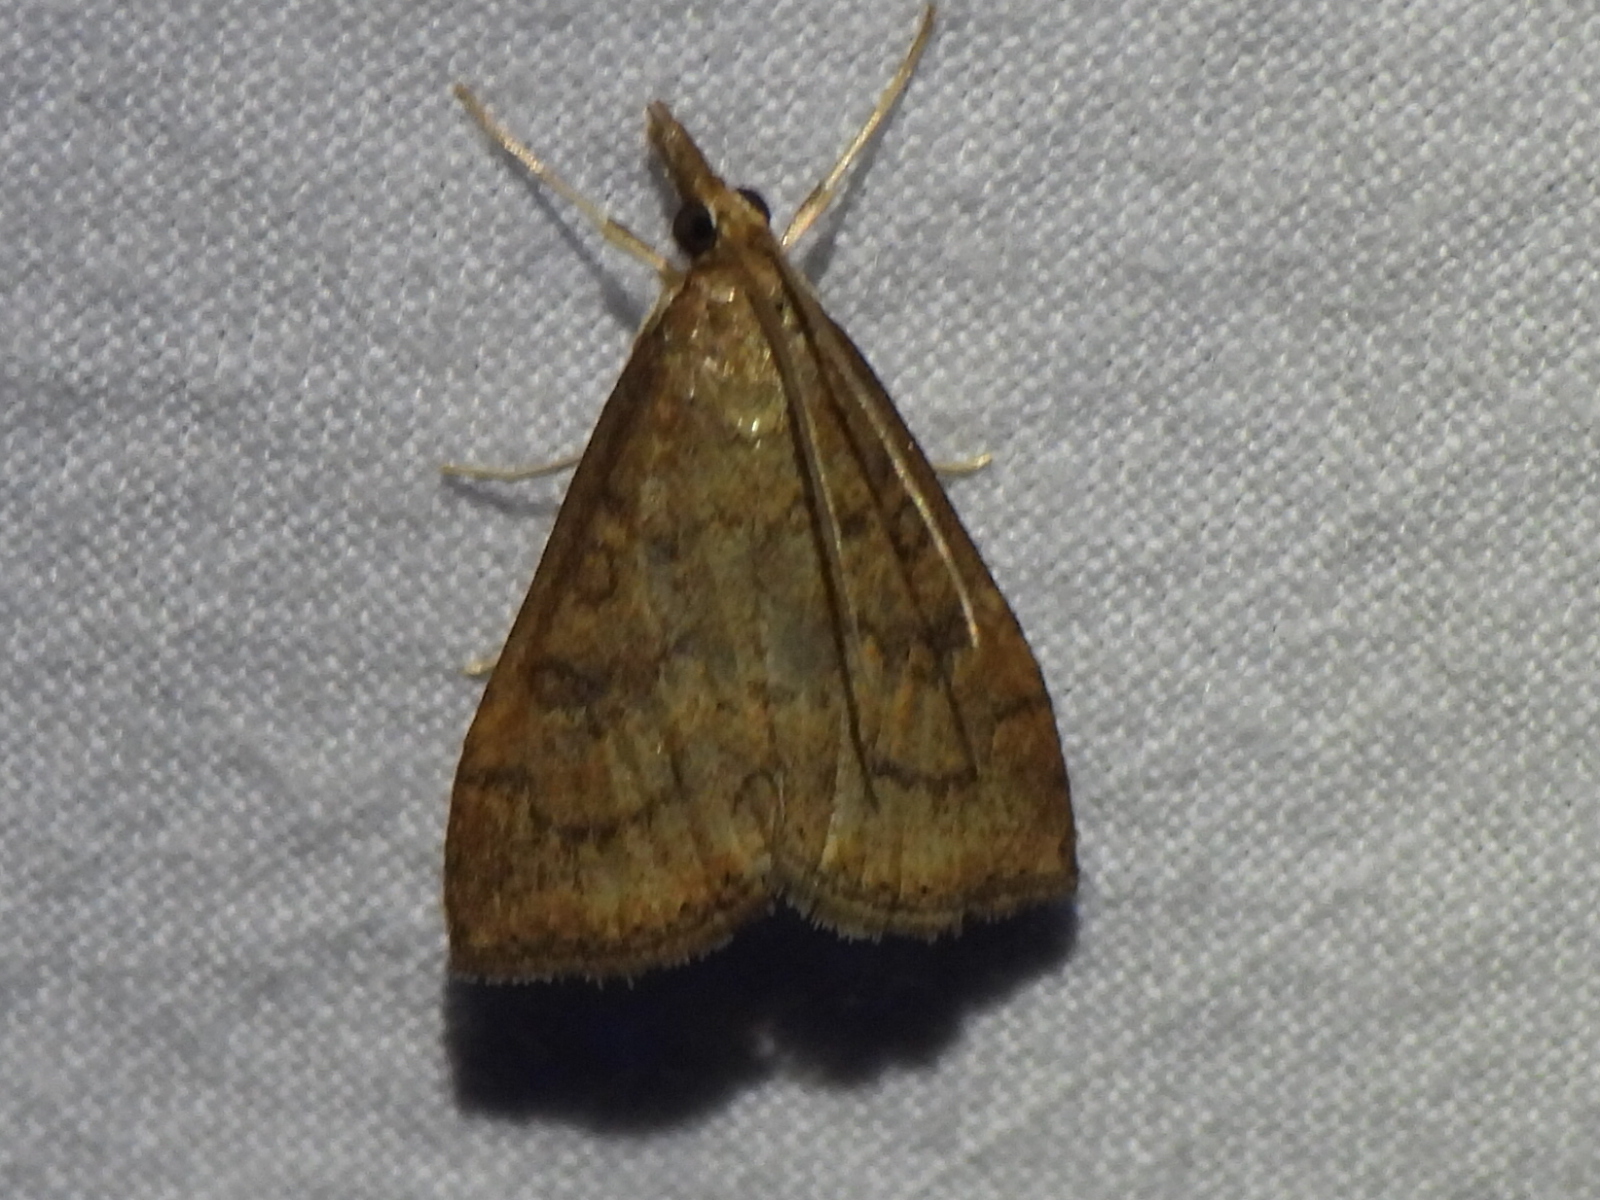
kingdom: Animalia
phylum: Arthropoda
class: Insecta
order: Lepidoptera
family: Crambidae
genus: Udea
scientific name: Udea rubigalis
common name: Celery leaftier moth
